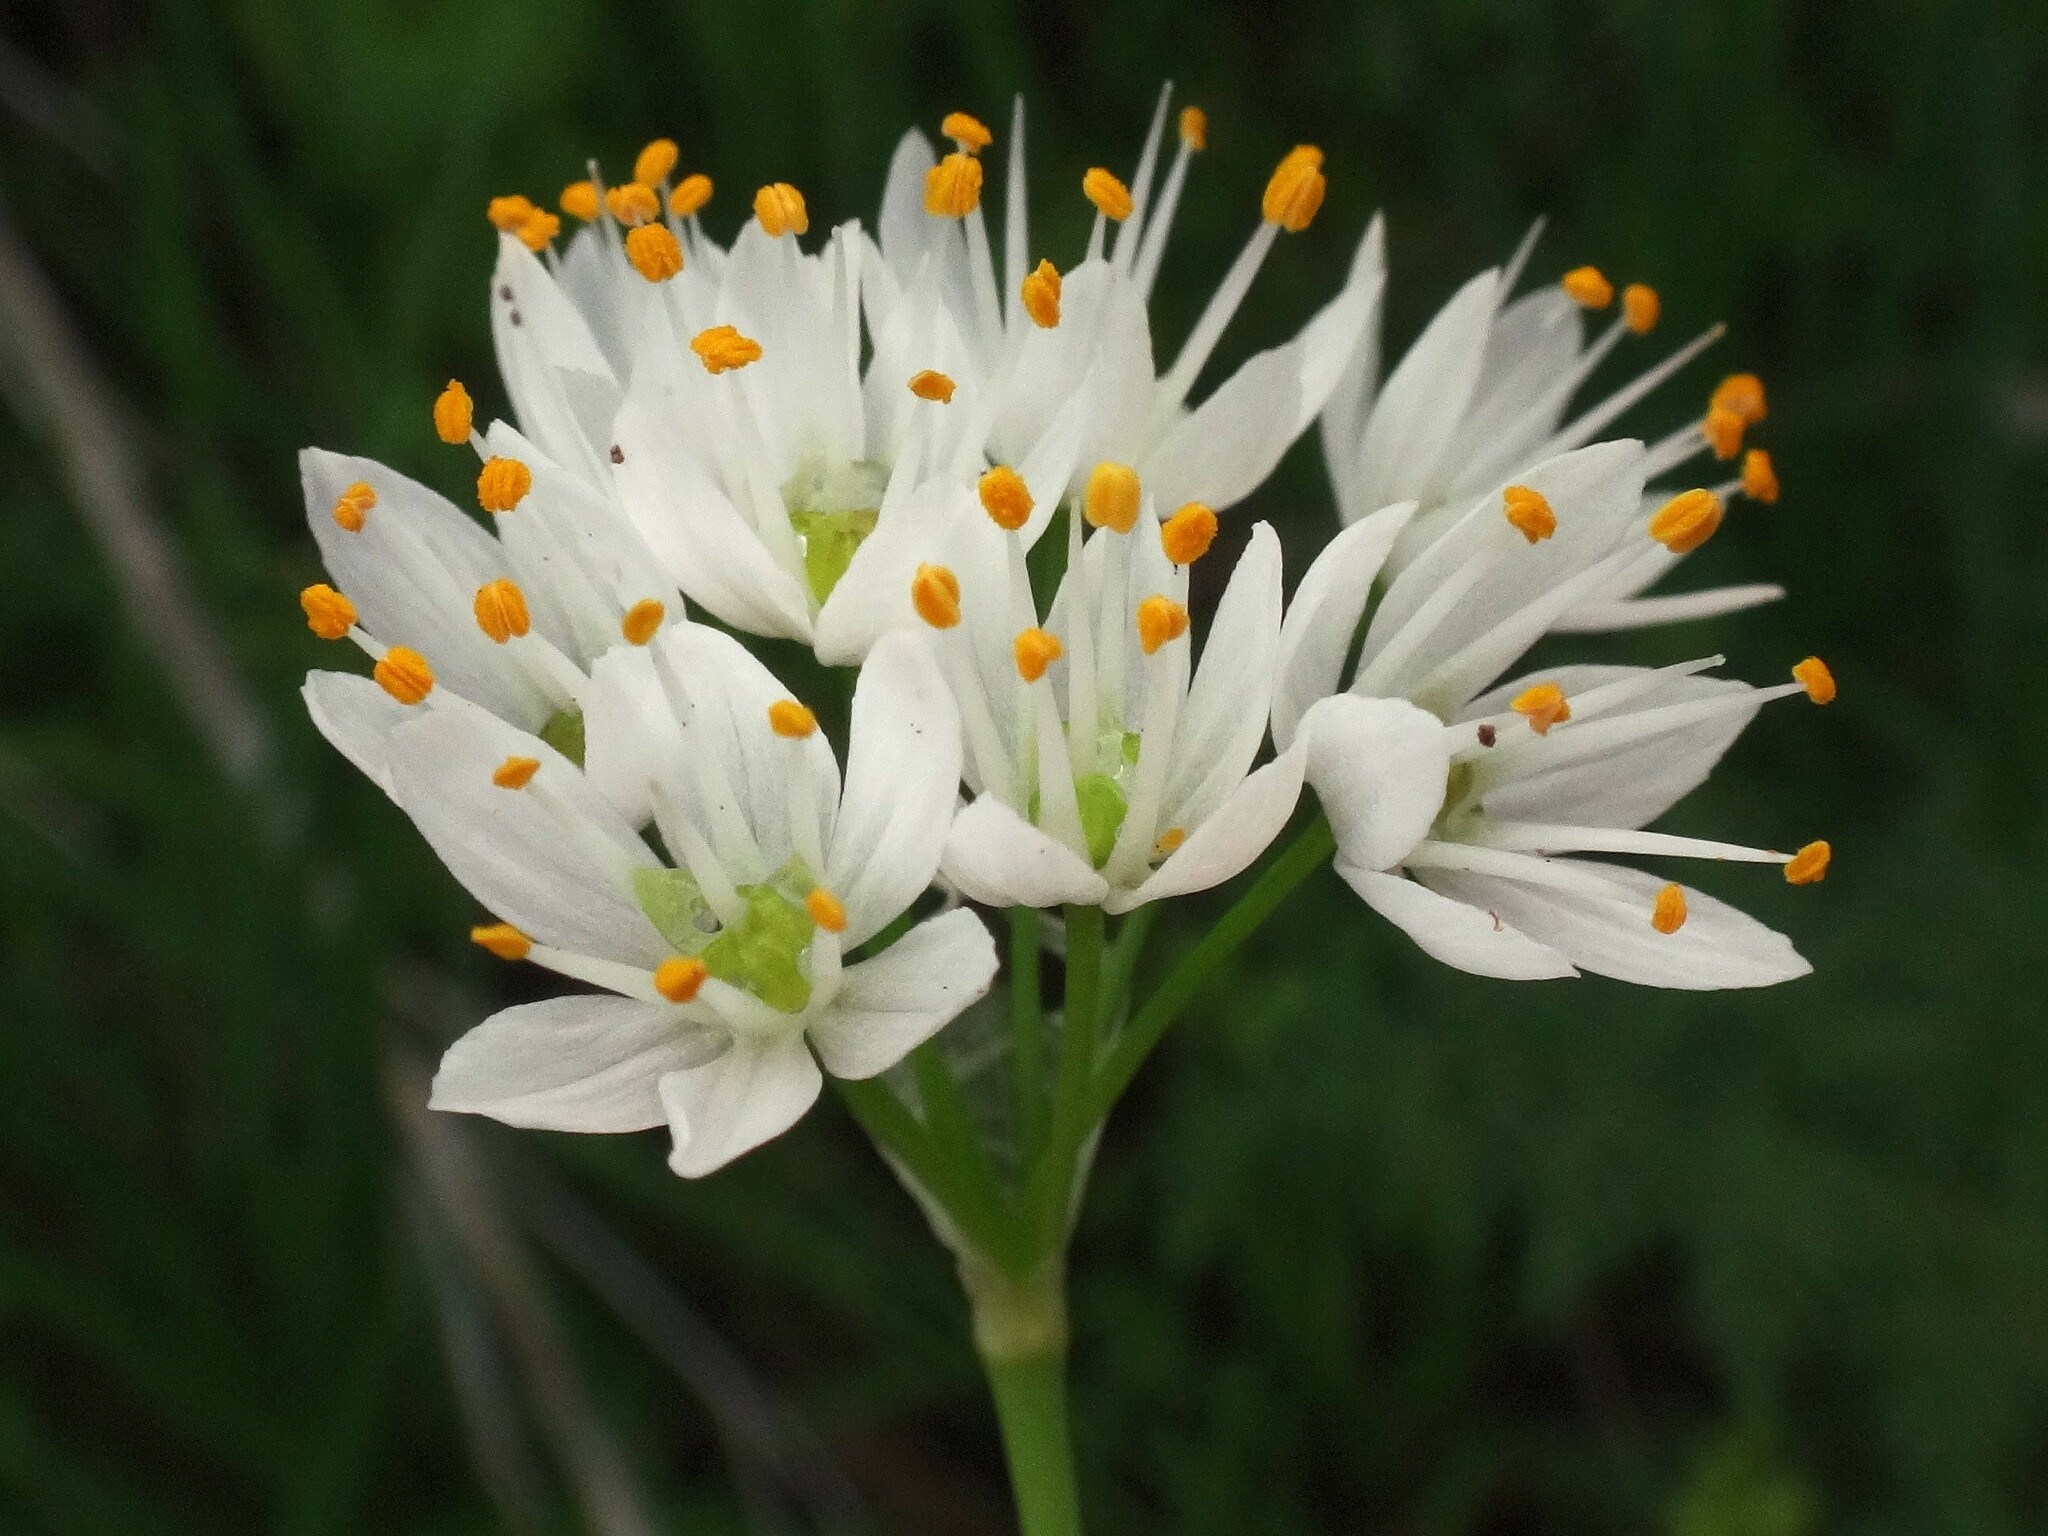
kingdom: Plantae
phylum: Tracheophyta
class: Liliopsida
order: Asparagales
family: Amaryllidaceae
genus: Allium
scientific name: Allium canariense
